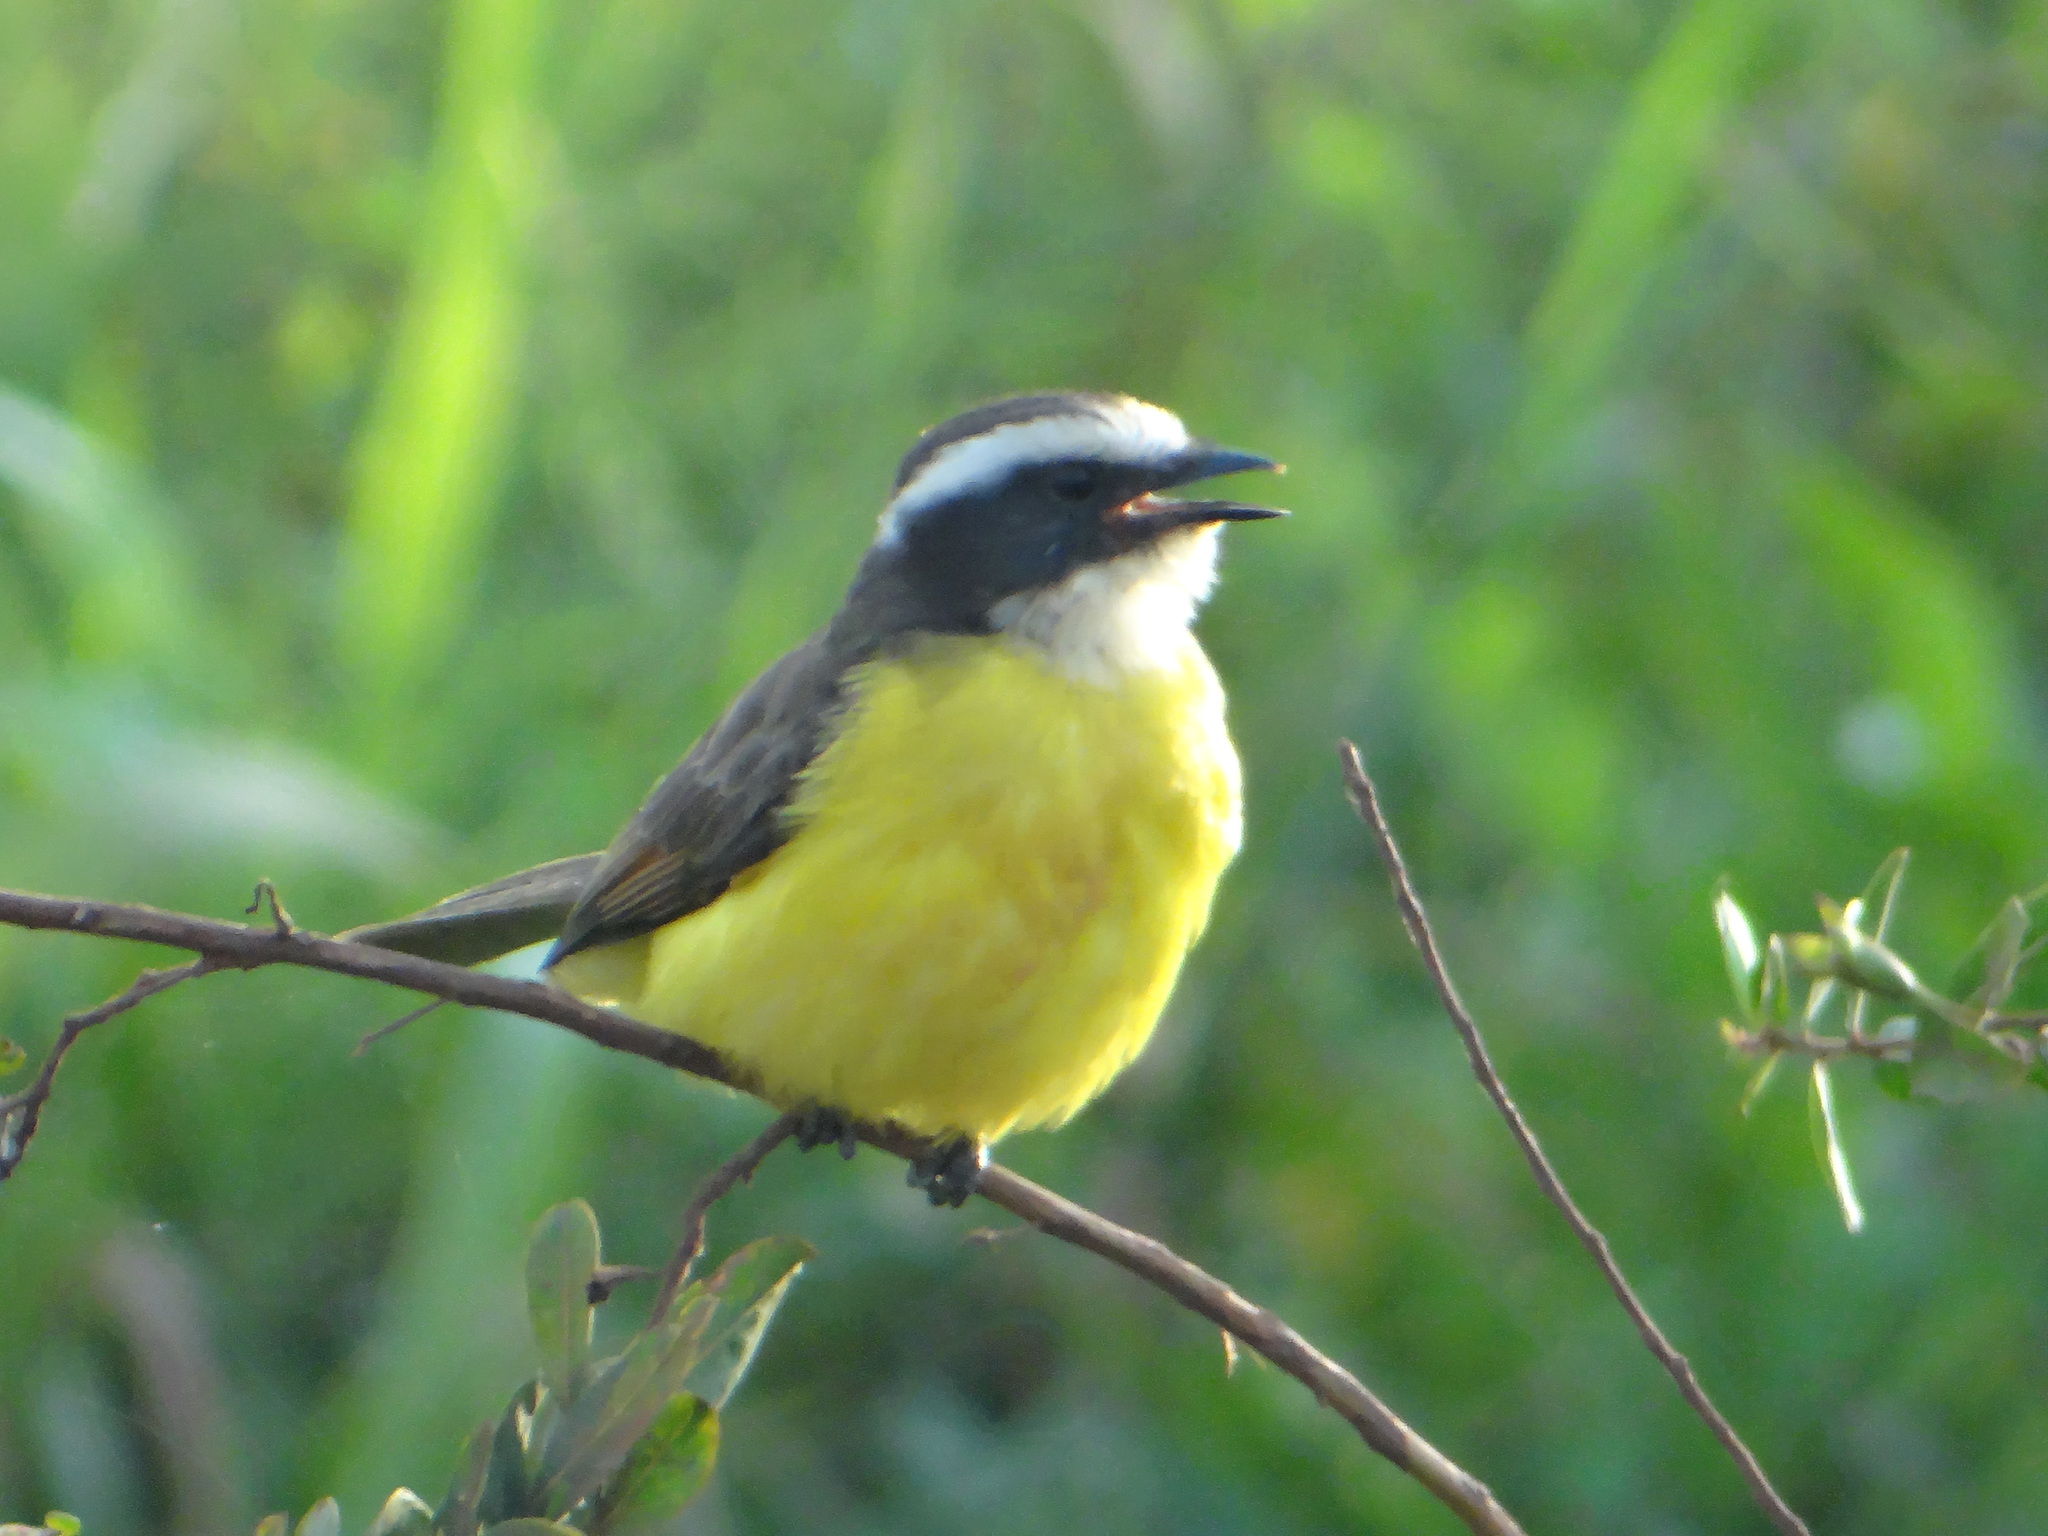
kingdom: Animalia
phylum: Chordata
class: Aves
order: Passeriformes
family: Tyrannidae
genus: Myiozetetes
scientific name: Myiozetetes cayanensis
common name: Rusty-margined flycatcher
